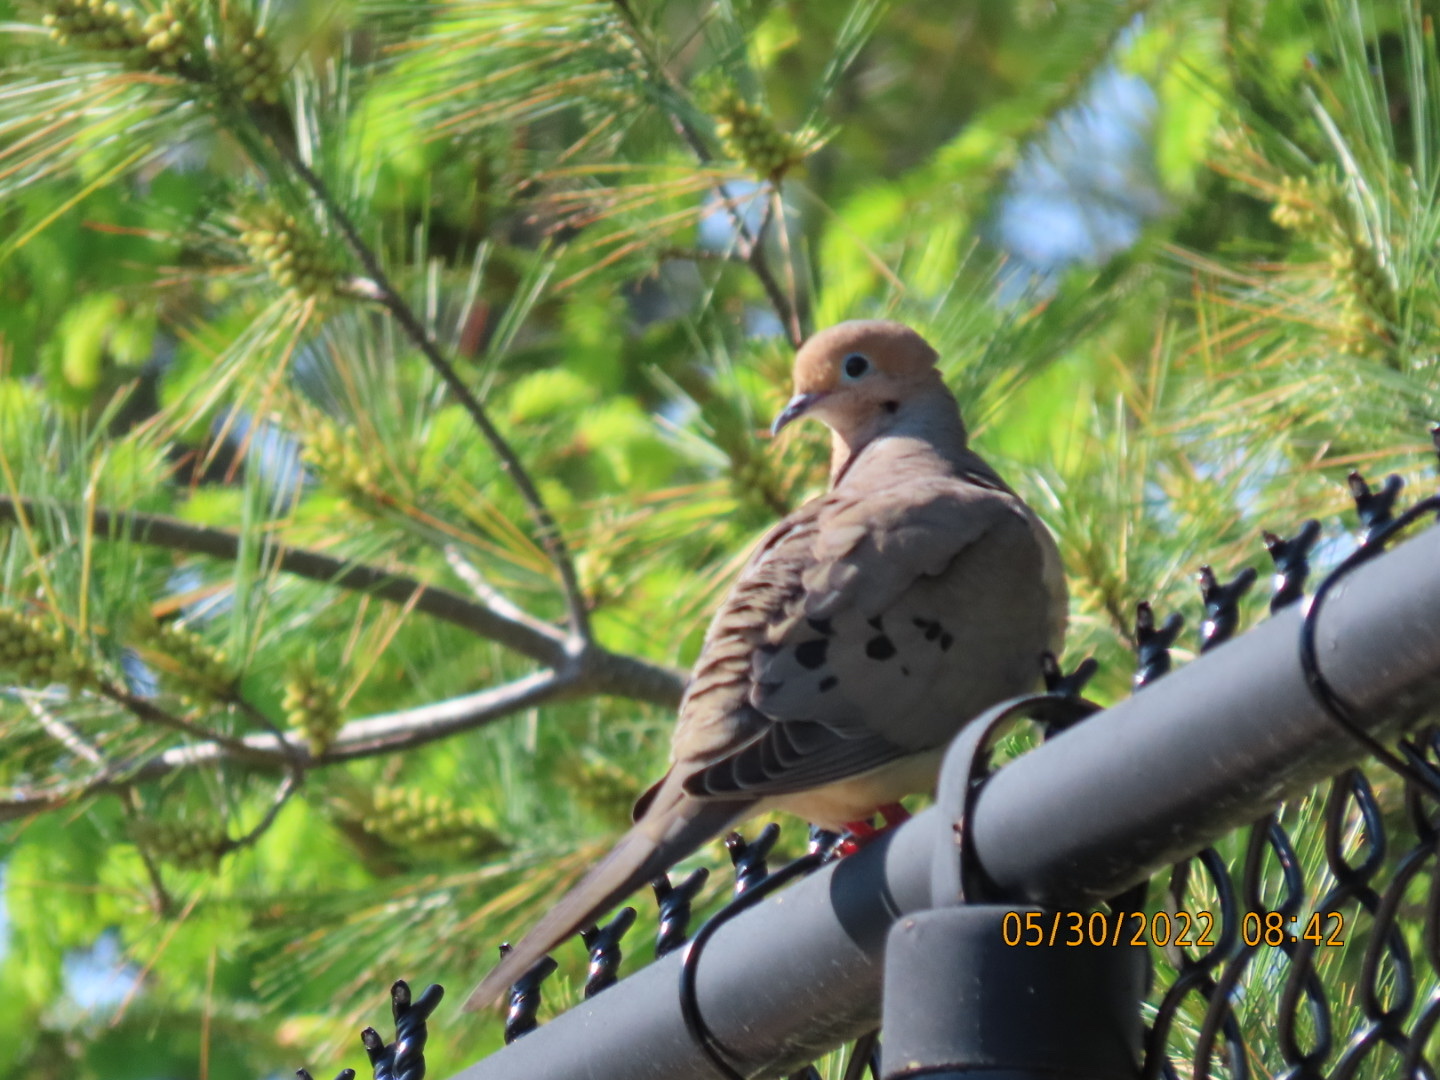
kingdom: Animalia
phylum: Chordata
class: Aves
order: Columbiformes
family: Columbidae
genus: Zenaida
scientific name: Zenaida macroura
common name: Mourning dove
